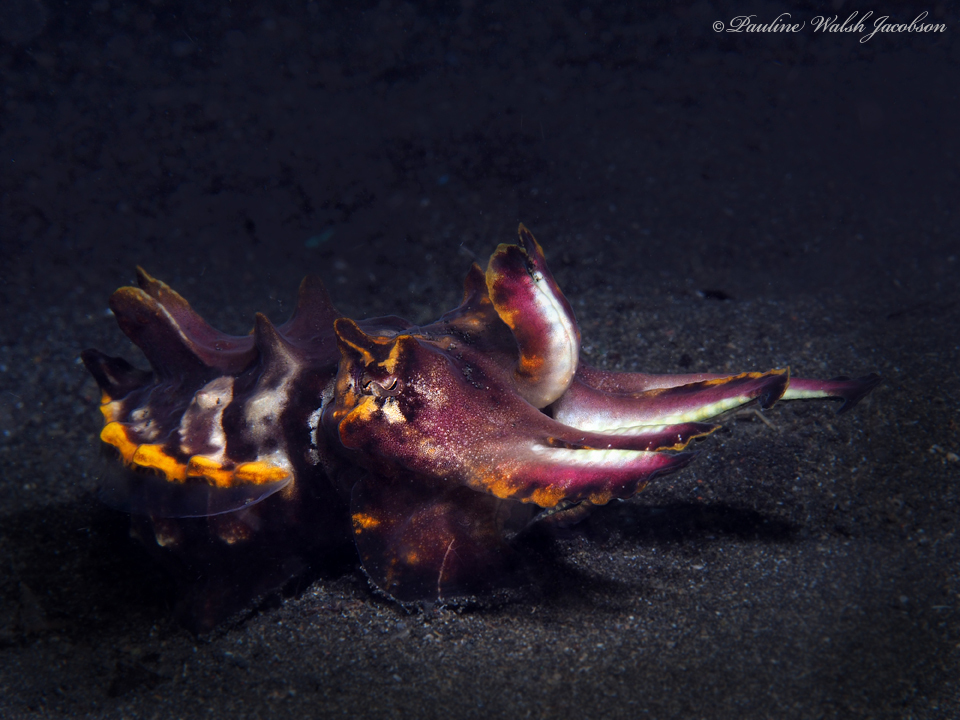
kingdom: Animalia
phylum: Mollusca
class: Cephalopoda
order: Sepiida
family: Sepiidae
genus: Ascarosepion
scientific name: Ascarosepion pfefferi
